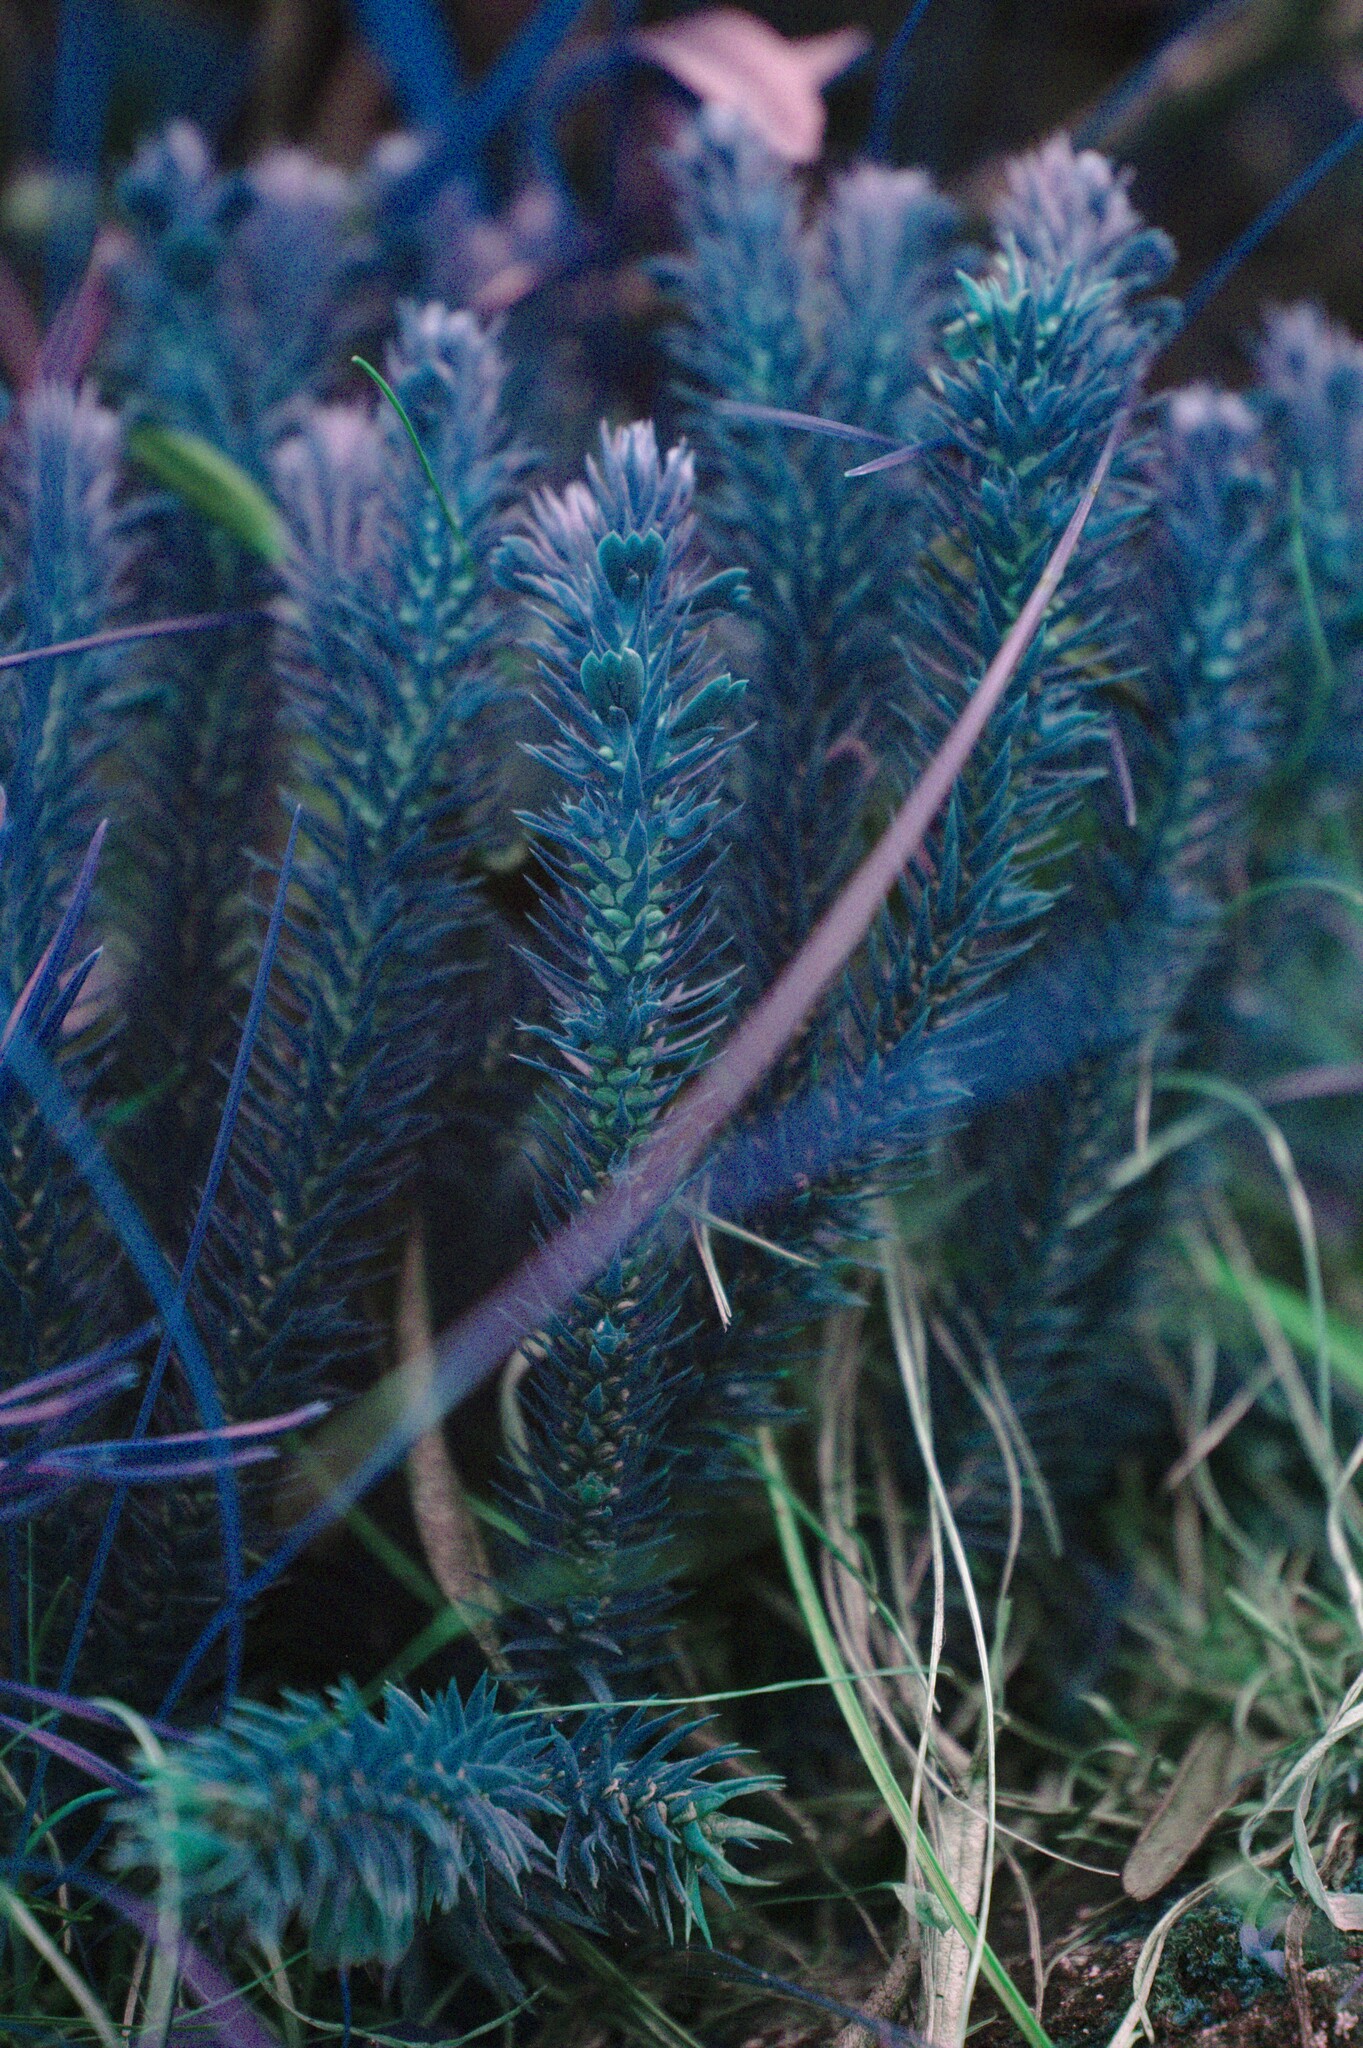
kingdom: Plantae
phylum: Tracheophyta
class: Lycopodiopsida
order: Lycopodiales
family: Lycopodiaceae
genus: Huperzia
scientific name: Huperzia selago
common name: Northern firmoss
